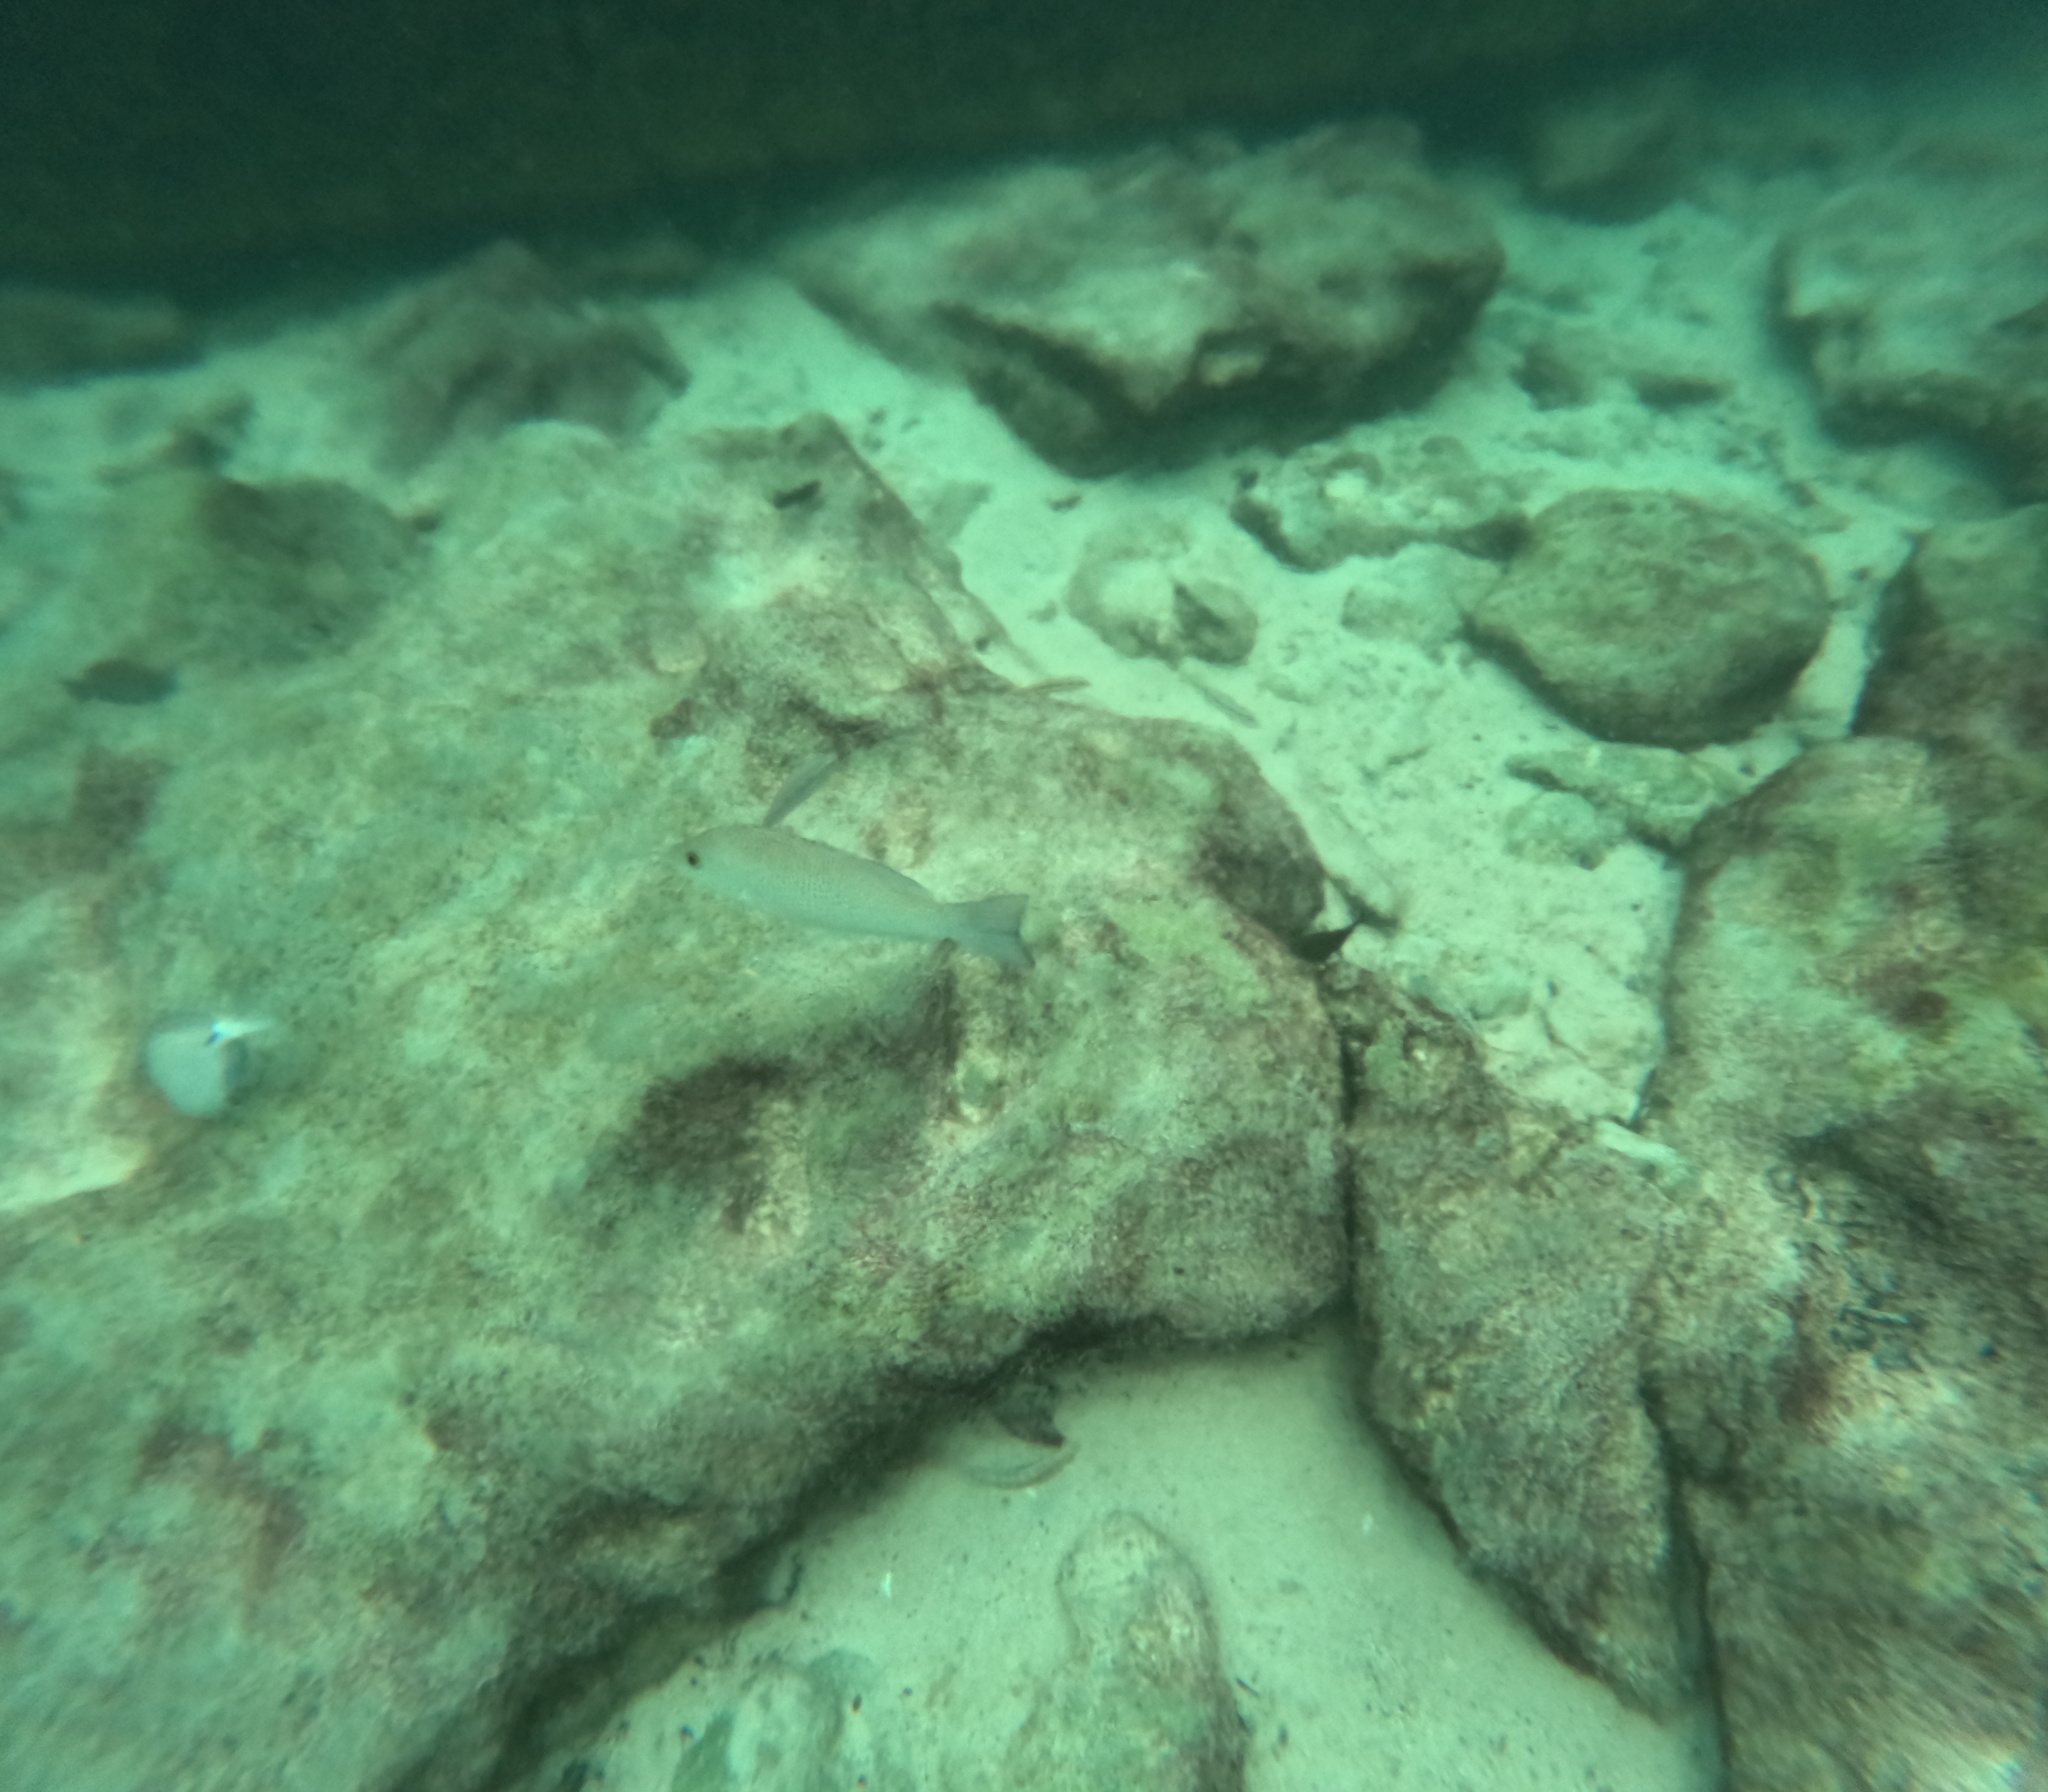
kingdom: Animalia
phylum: Chordata
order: Perciformes
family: Lutjanidae
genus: Lutjanus
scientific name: Lutjanus griseus
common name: Gray snapper
